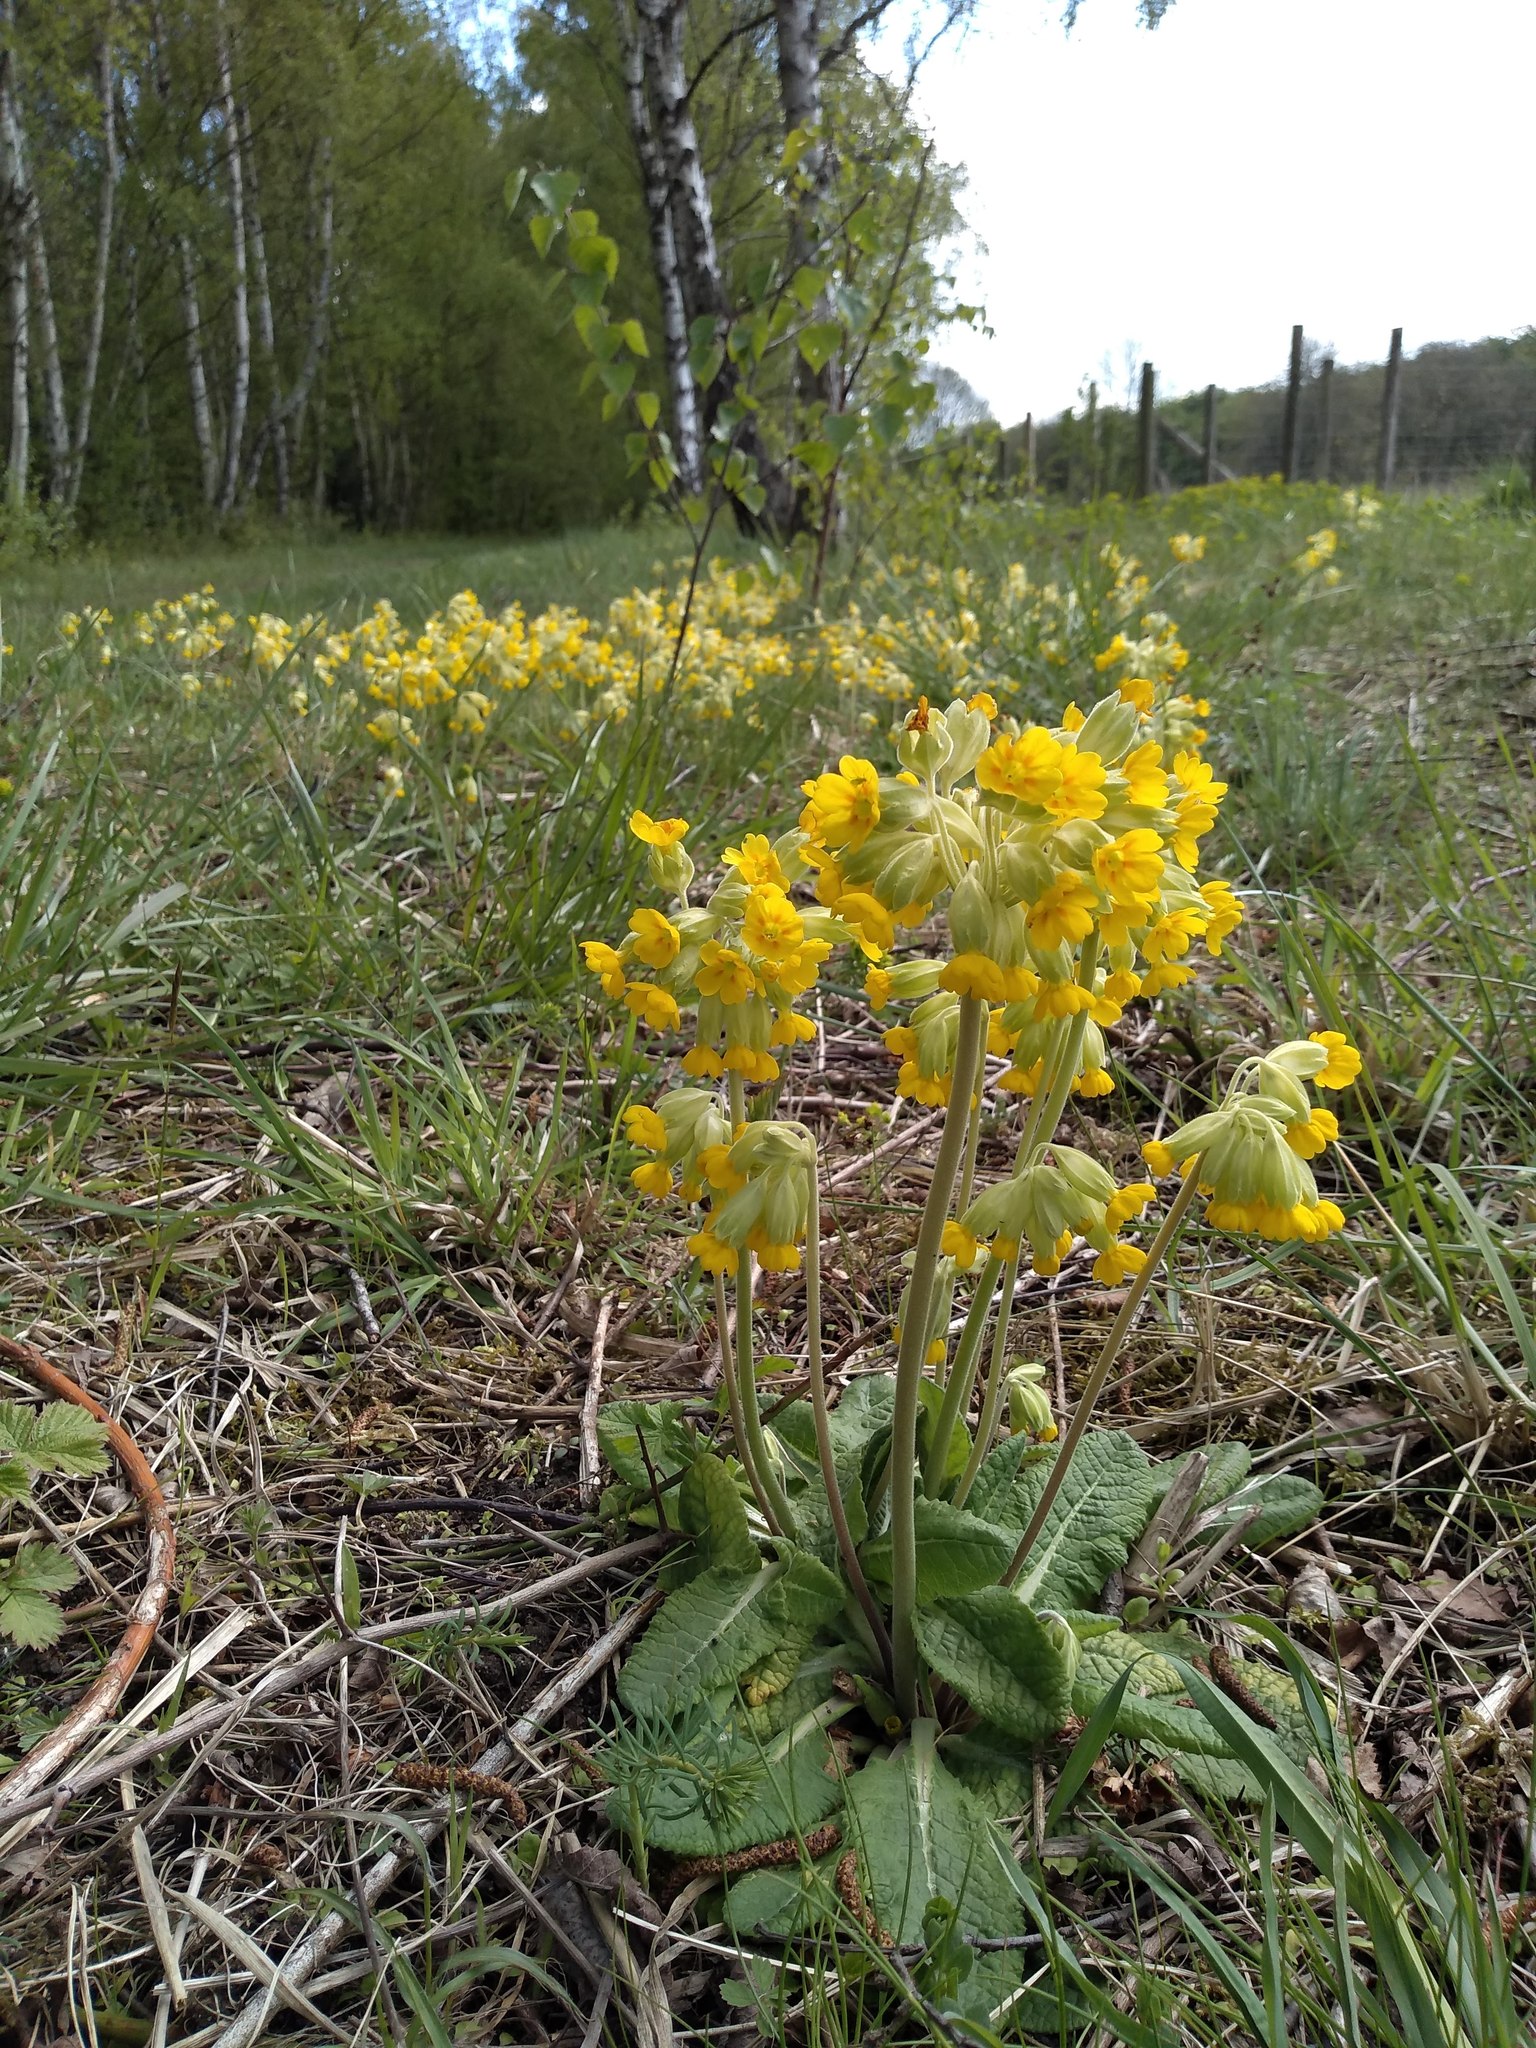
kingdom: Plantae
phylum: Tracheophyta
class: Magnoliopsida
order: Ericales
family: Primulaceae
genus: Primula
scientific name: Primula veris
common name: Cowslip
